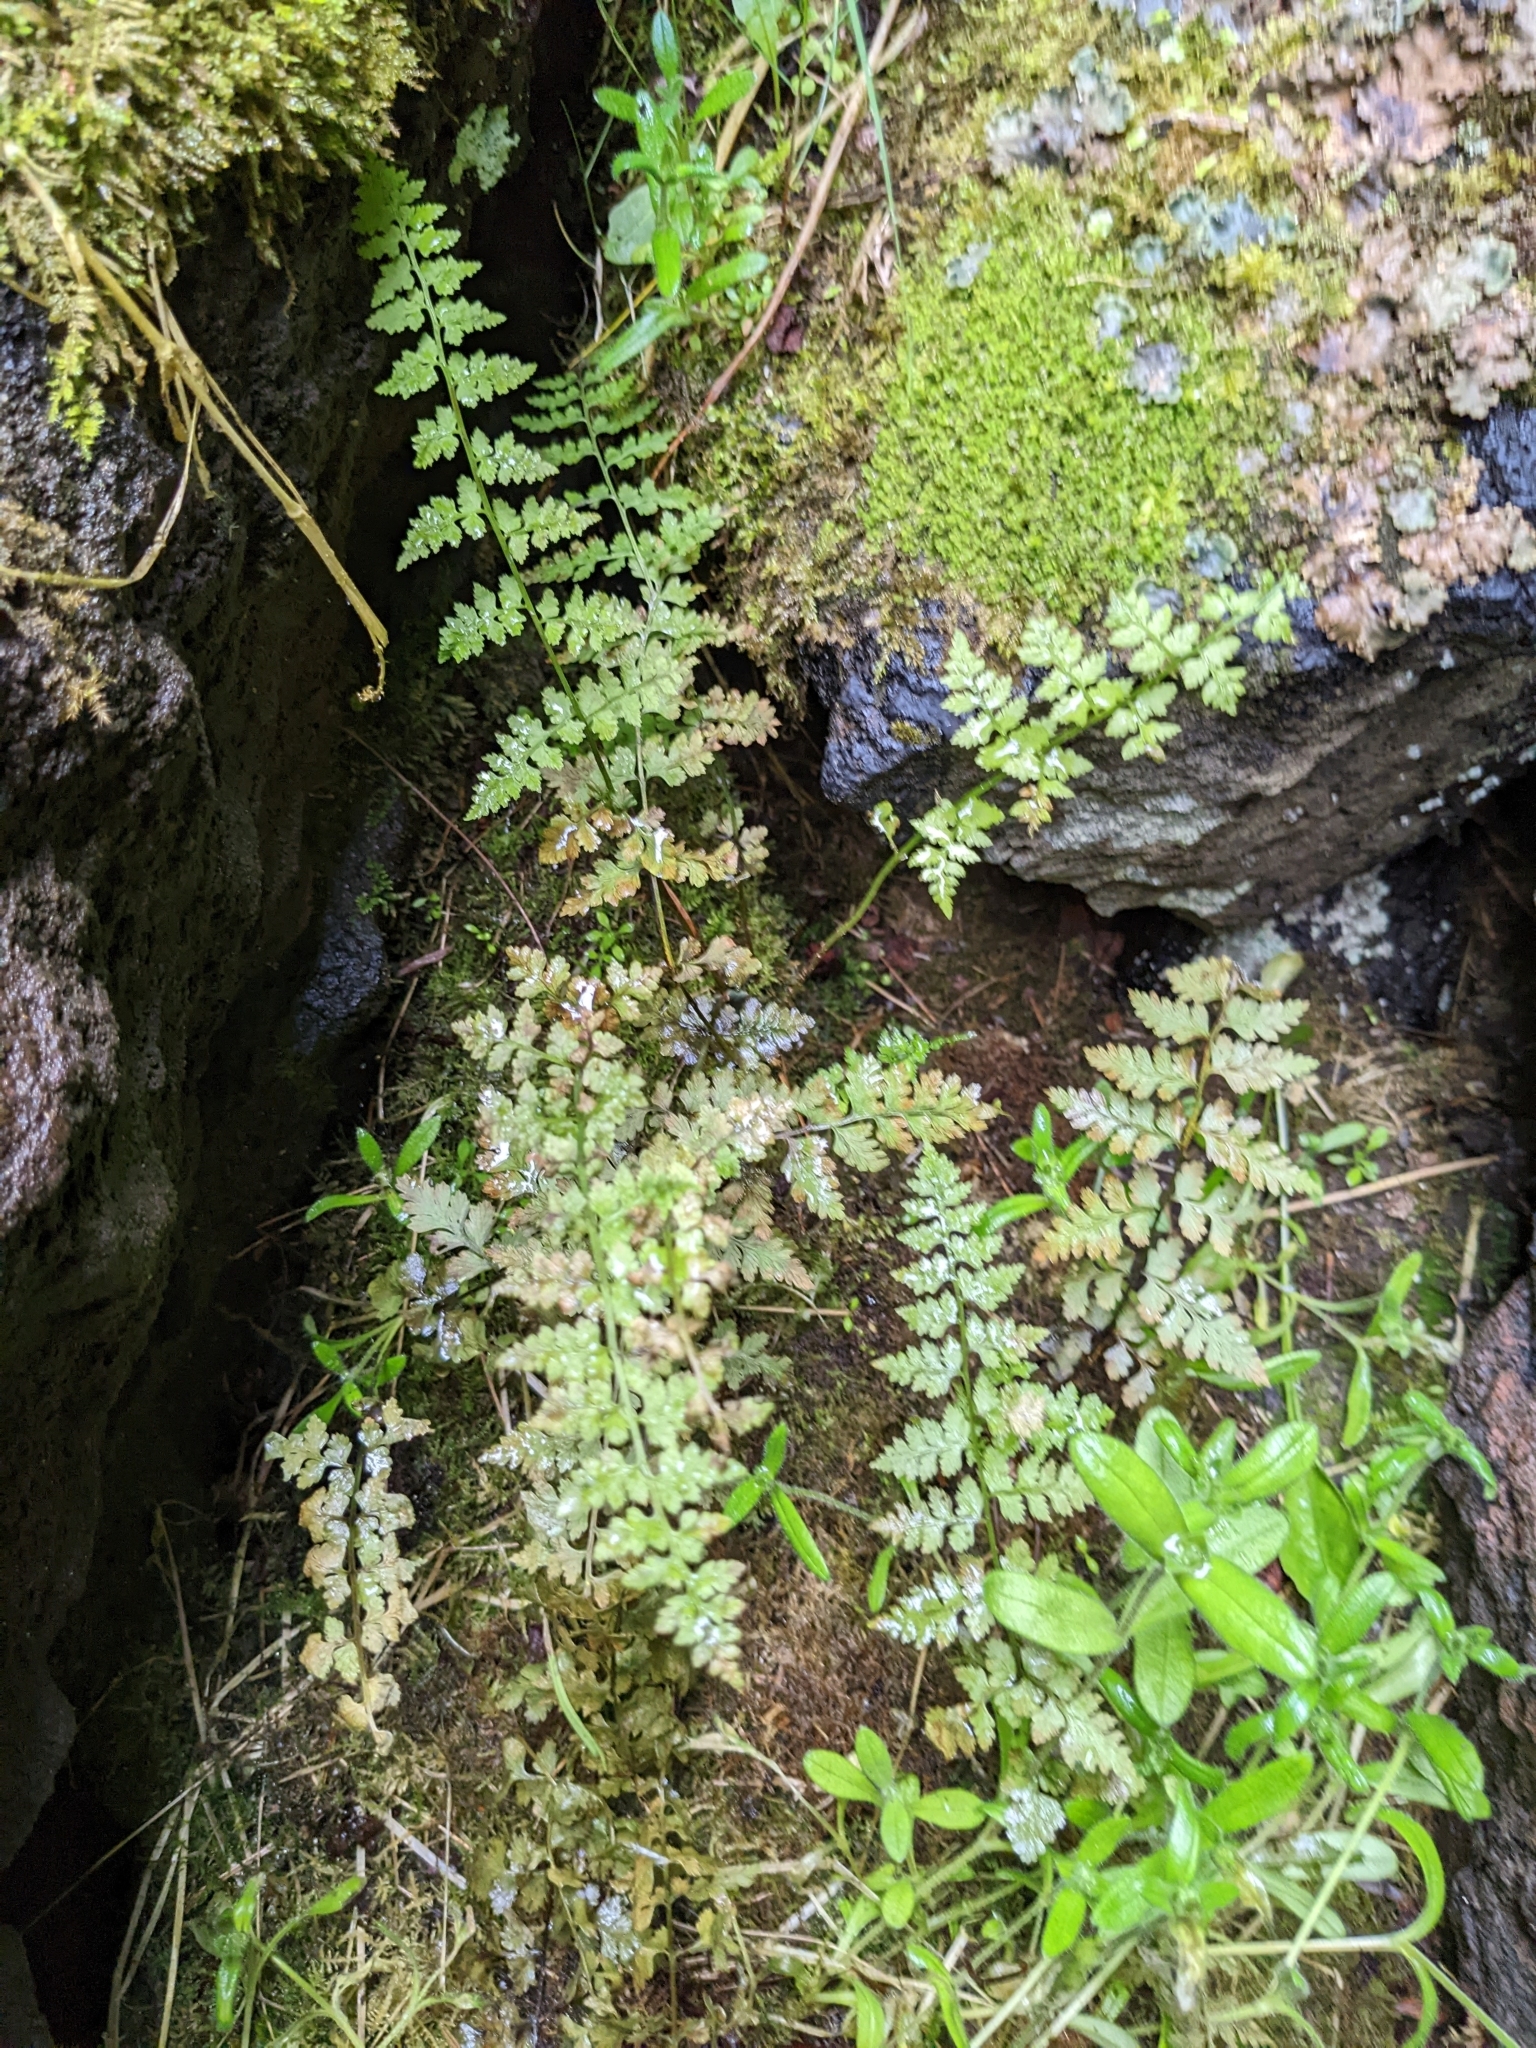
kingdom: Plantae
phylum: Tracheophyta
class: Polypodiopsida
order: Polypodiales
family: Cystopteridaceae
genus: Cystopteris
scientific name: Cystopteris fragilis
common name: Brittle bladder fern
